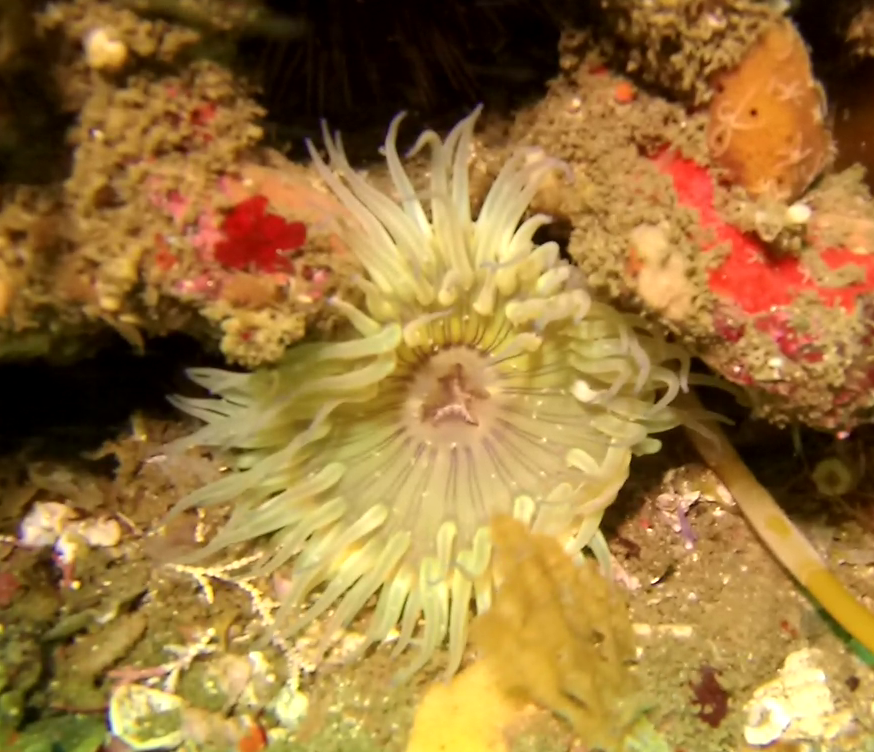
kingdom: Animalia
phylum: Cnidaria
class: Anthozoa
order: Actiniaria
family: Actiniidae
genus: Anthopleura
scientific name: Anthopleura sola
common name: Sun anemone
